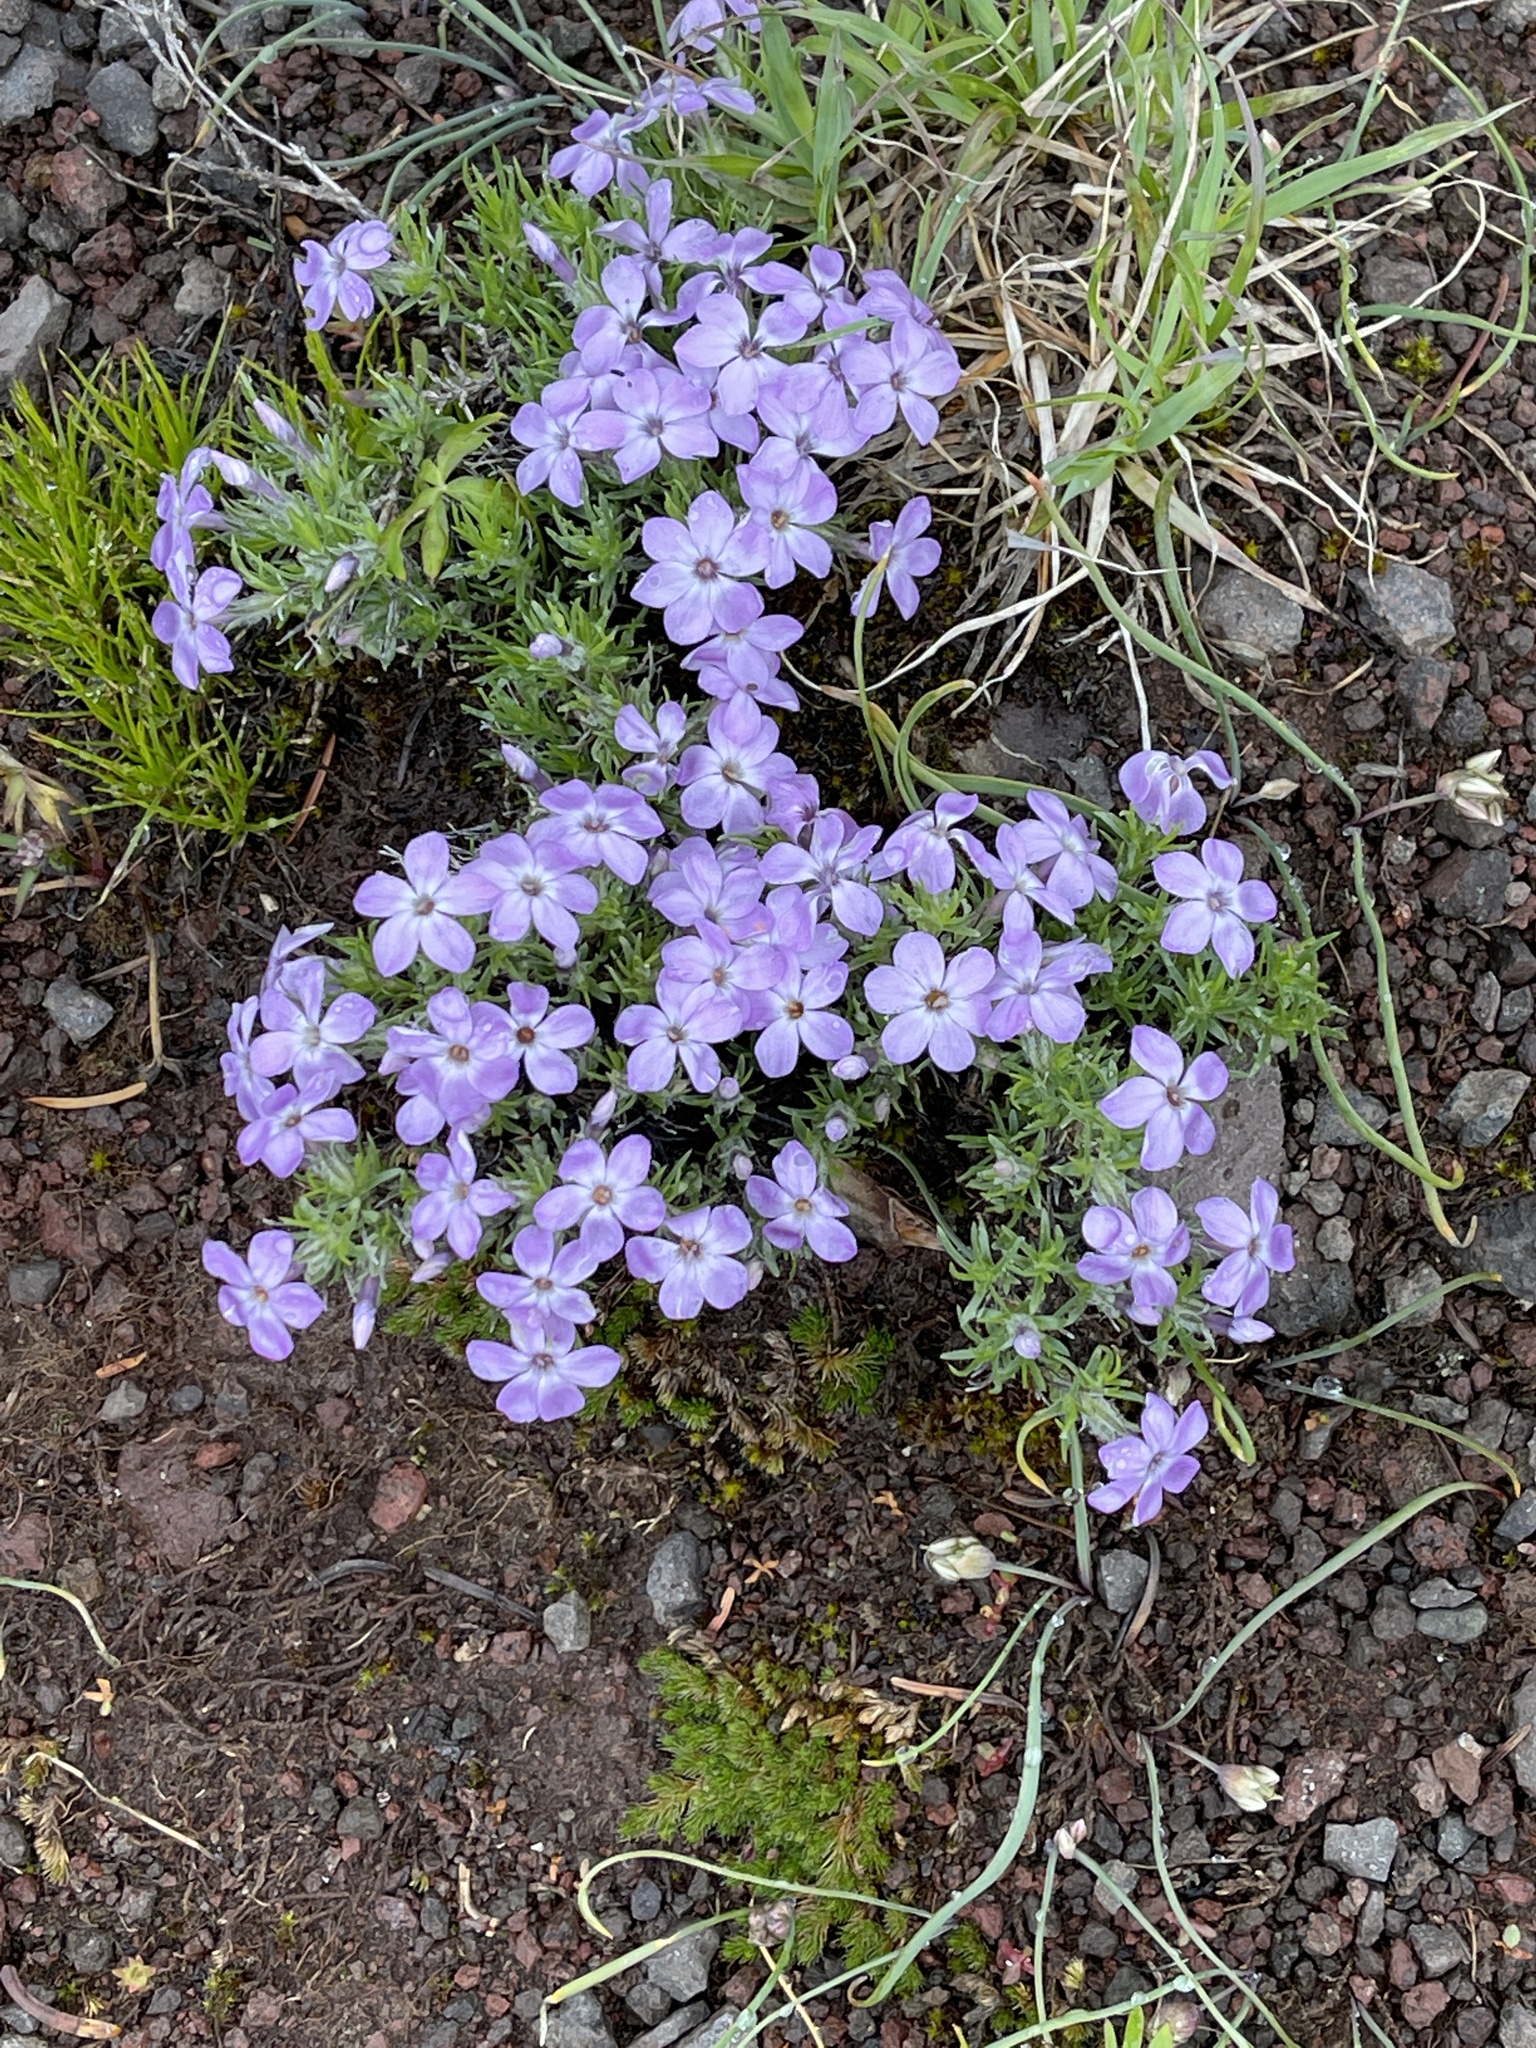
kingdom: Plantae
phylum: Tracheophyta
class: Magnoliopsida
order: Ericales
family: Polemoniaceae
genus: Phlox
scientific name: Phlox diffusa
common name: Mat phlox
